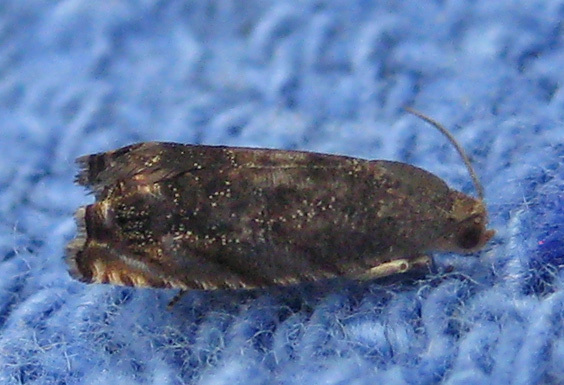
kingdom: Animalia
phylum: Arthropoda
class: Insecta
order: Lepidoptera
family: Tortricidae
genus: Cydia
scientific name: Cydia caryana
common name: Hickory shuckworm moth
